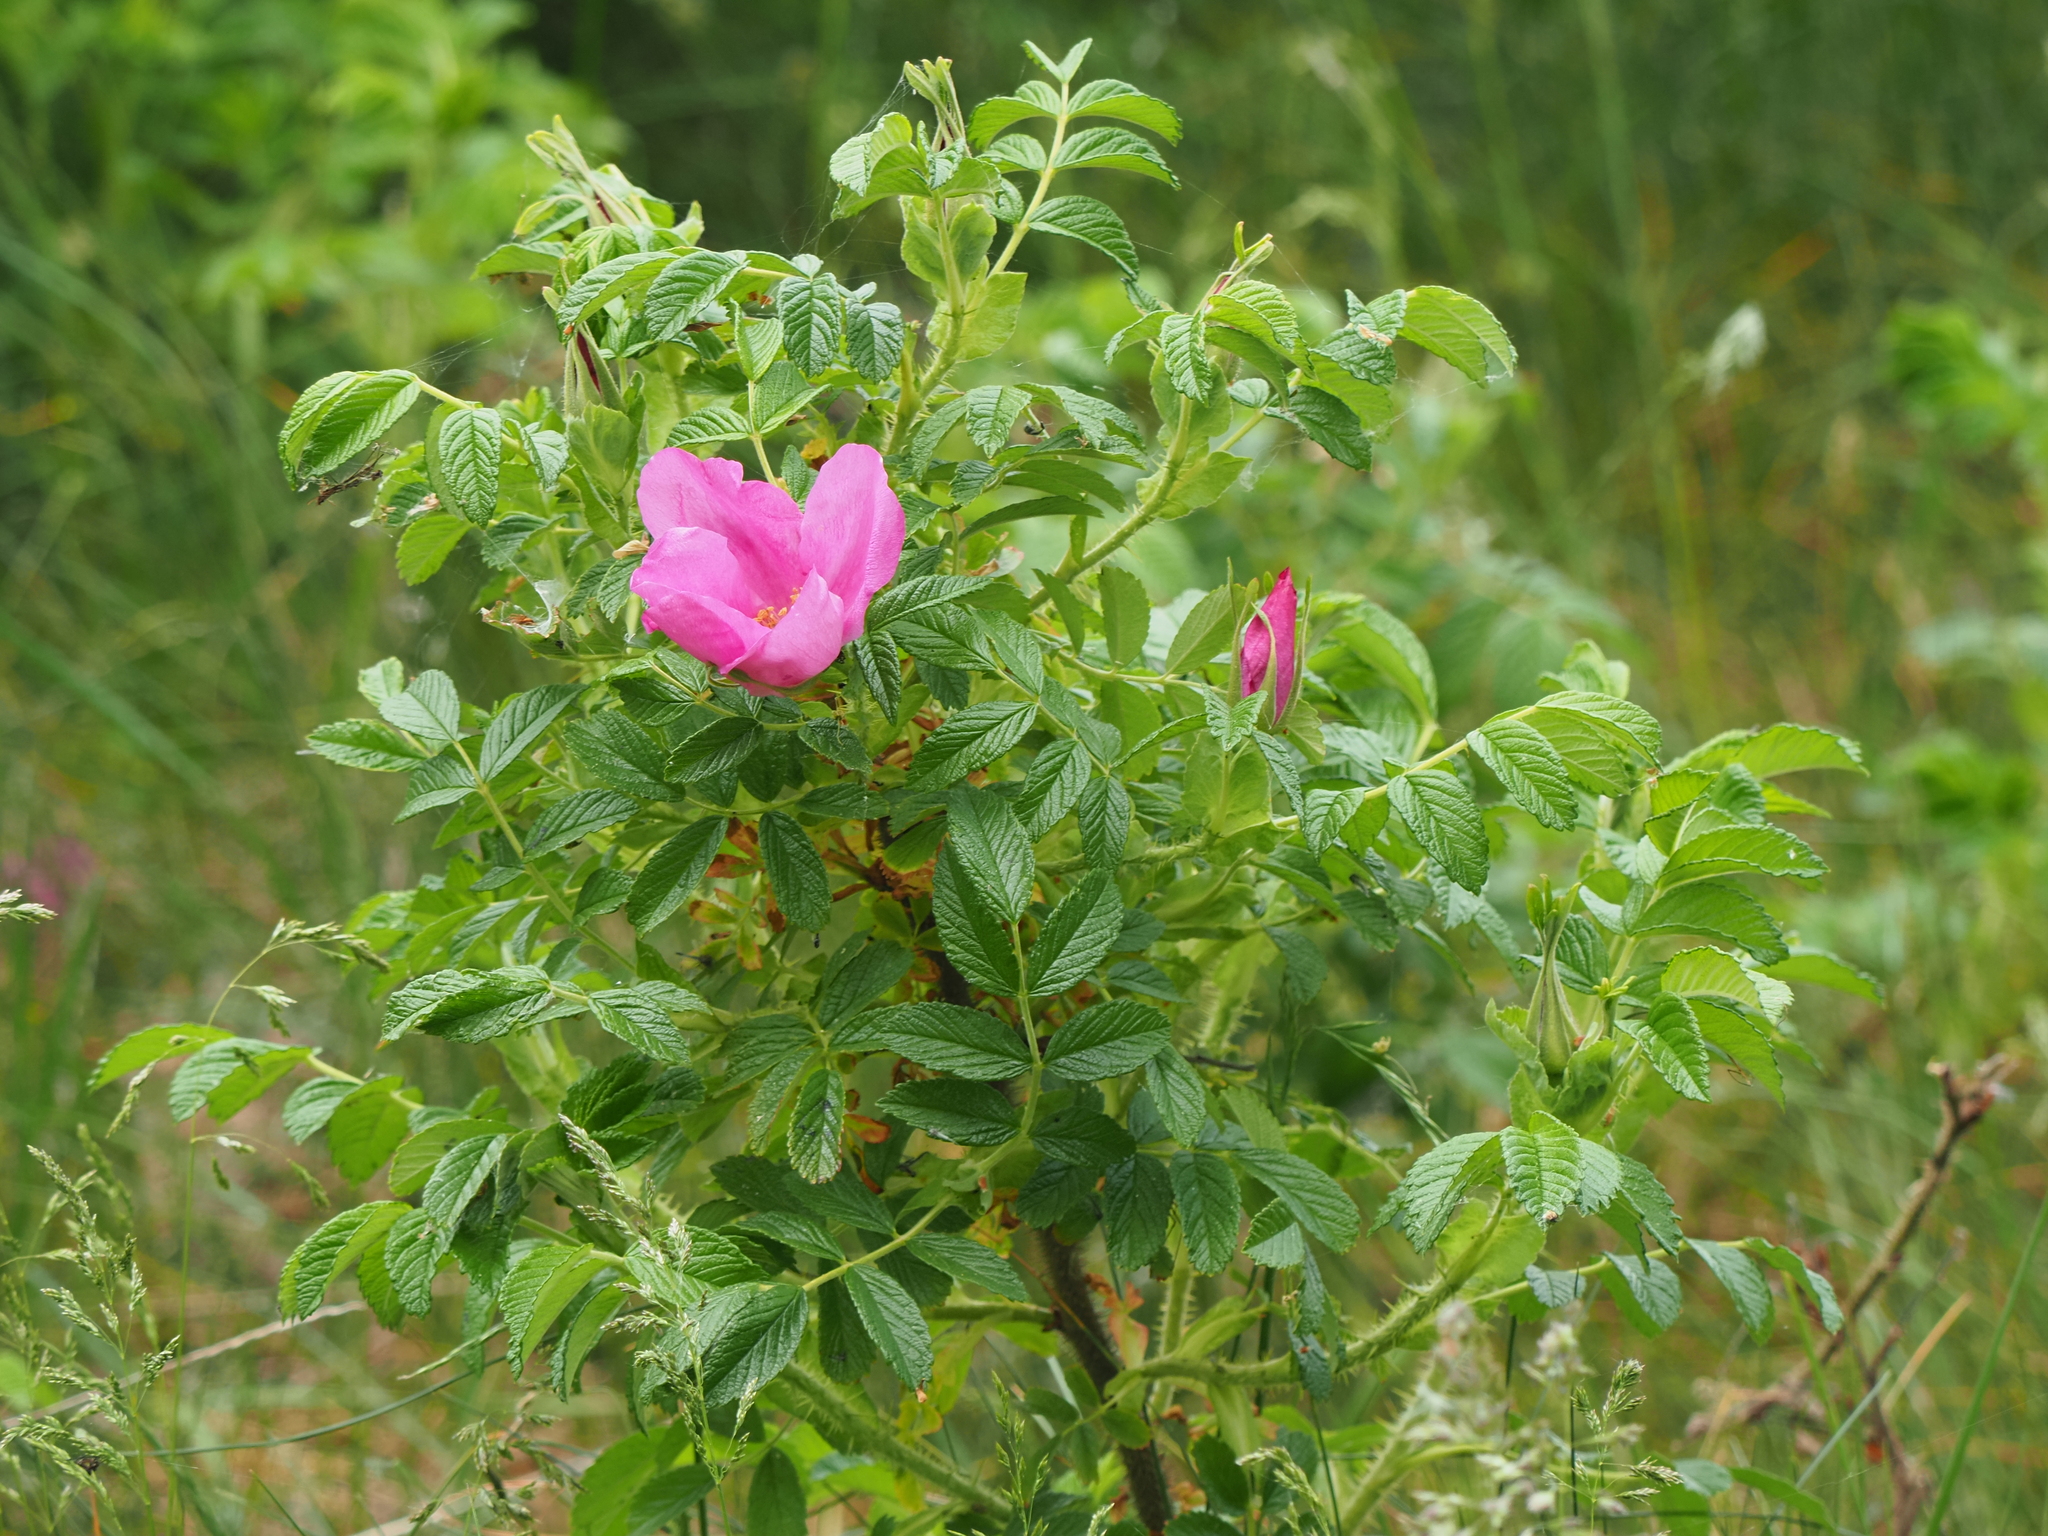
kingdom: Plantae
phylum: Tracheophyta
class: Magnoliopsida
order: Rosales
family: Rosaceae
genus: Rosa
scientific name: Rosa rugosa
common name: Japanese rose
